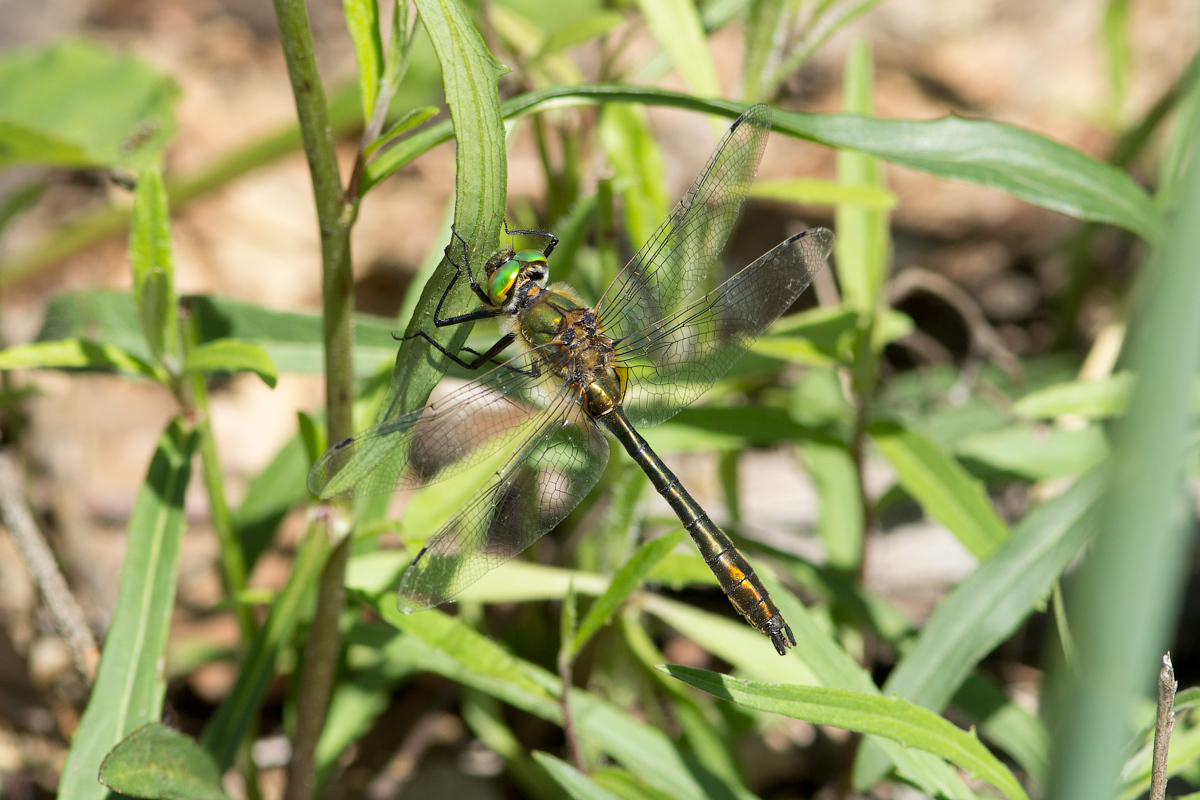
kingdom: Animalia
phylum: Arthropoda
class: Insecta
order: Odonata
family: Corduliidae
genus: Cordulia
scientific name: Cordulia aenea
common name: Downy emerald
